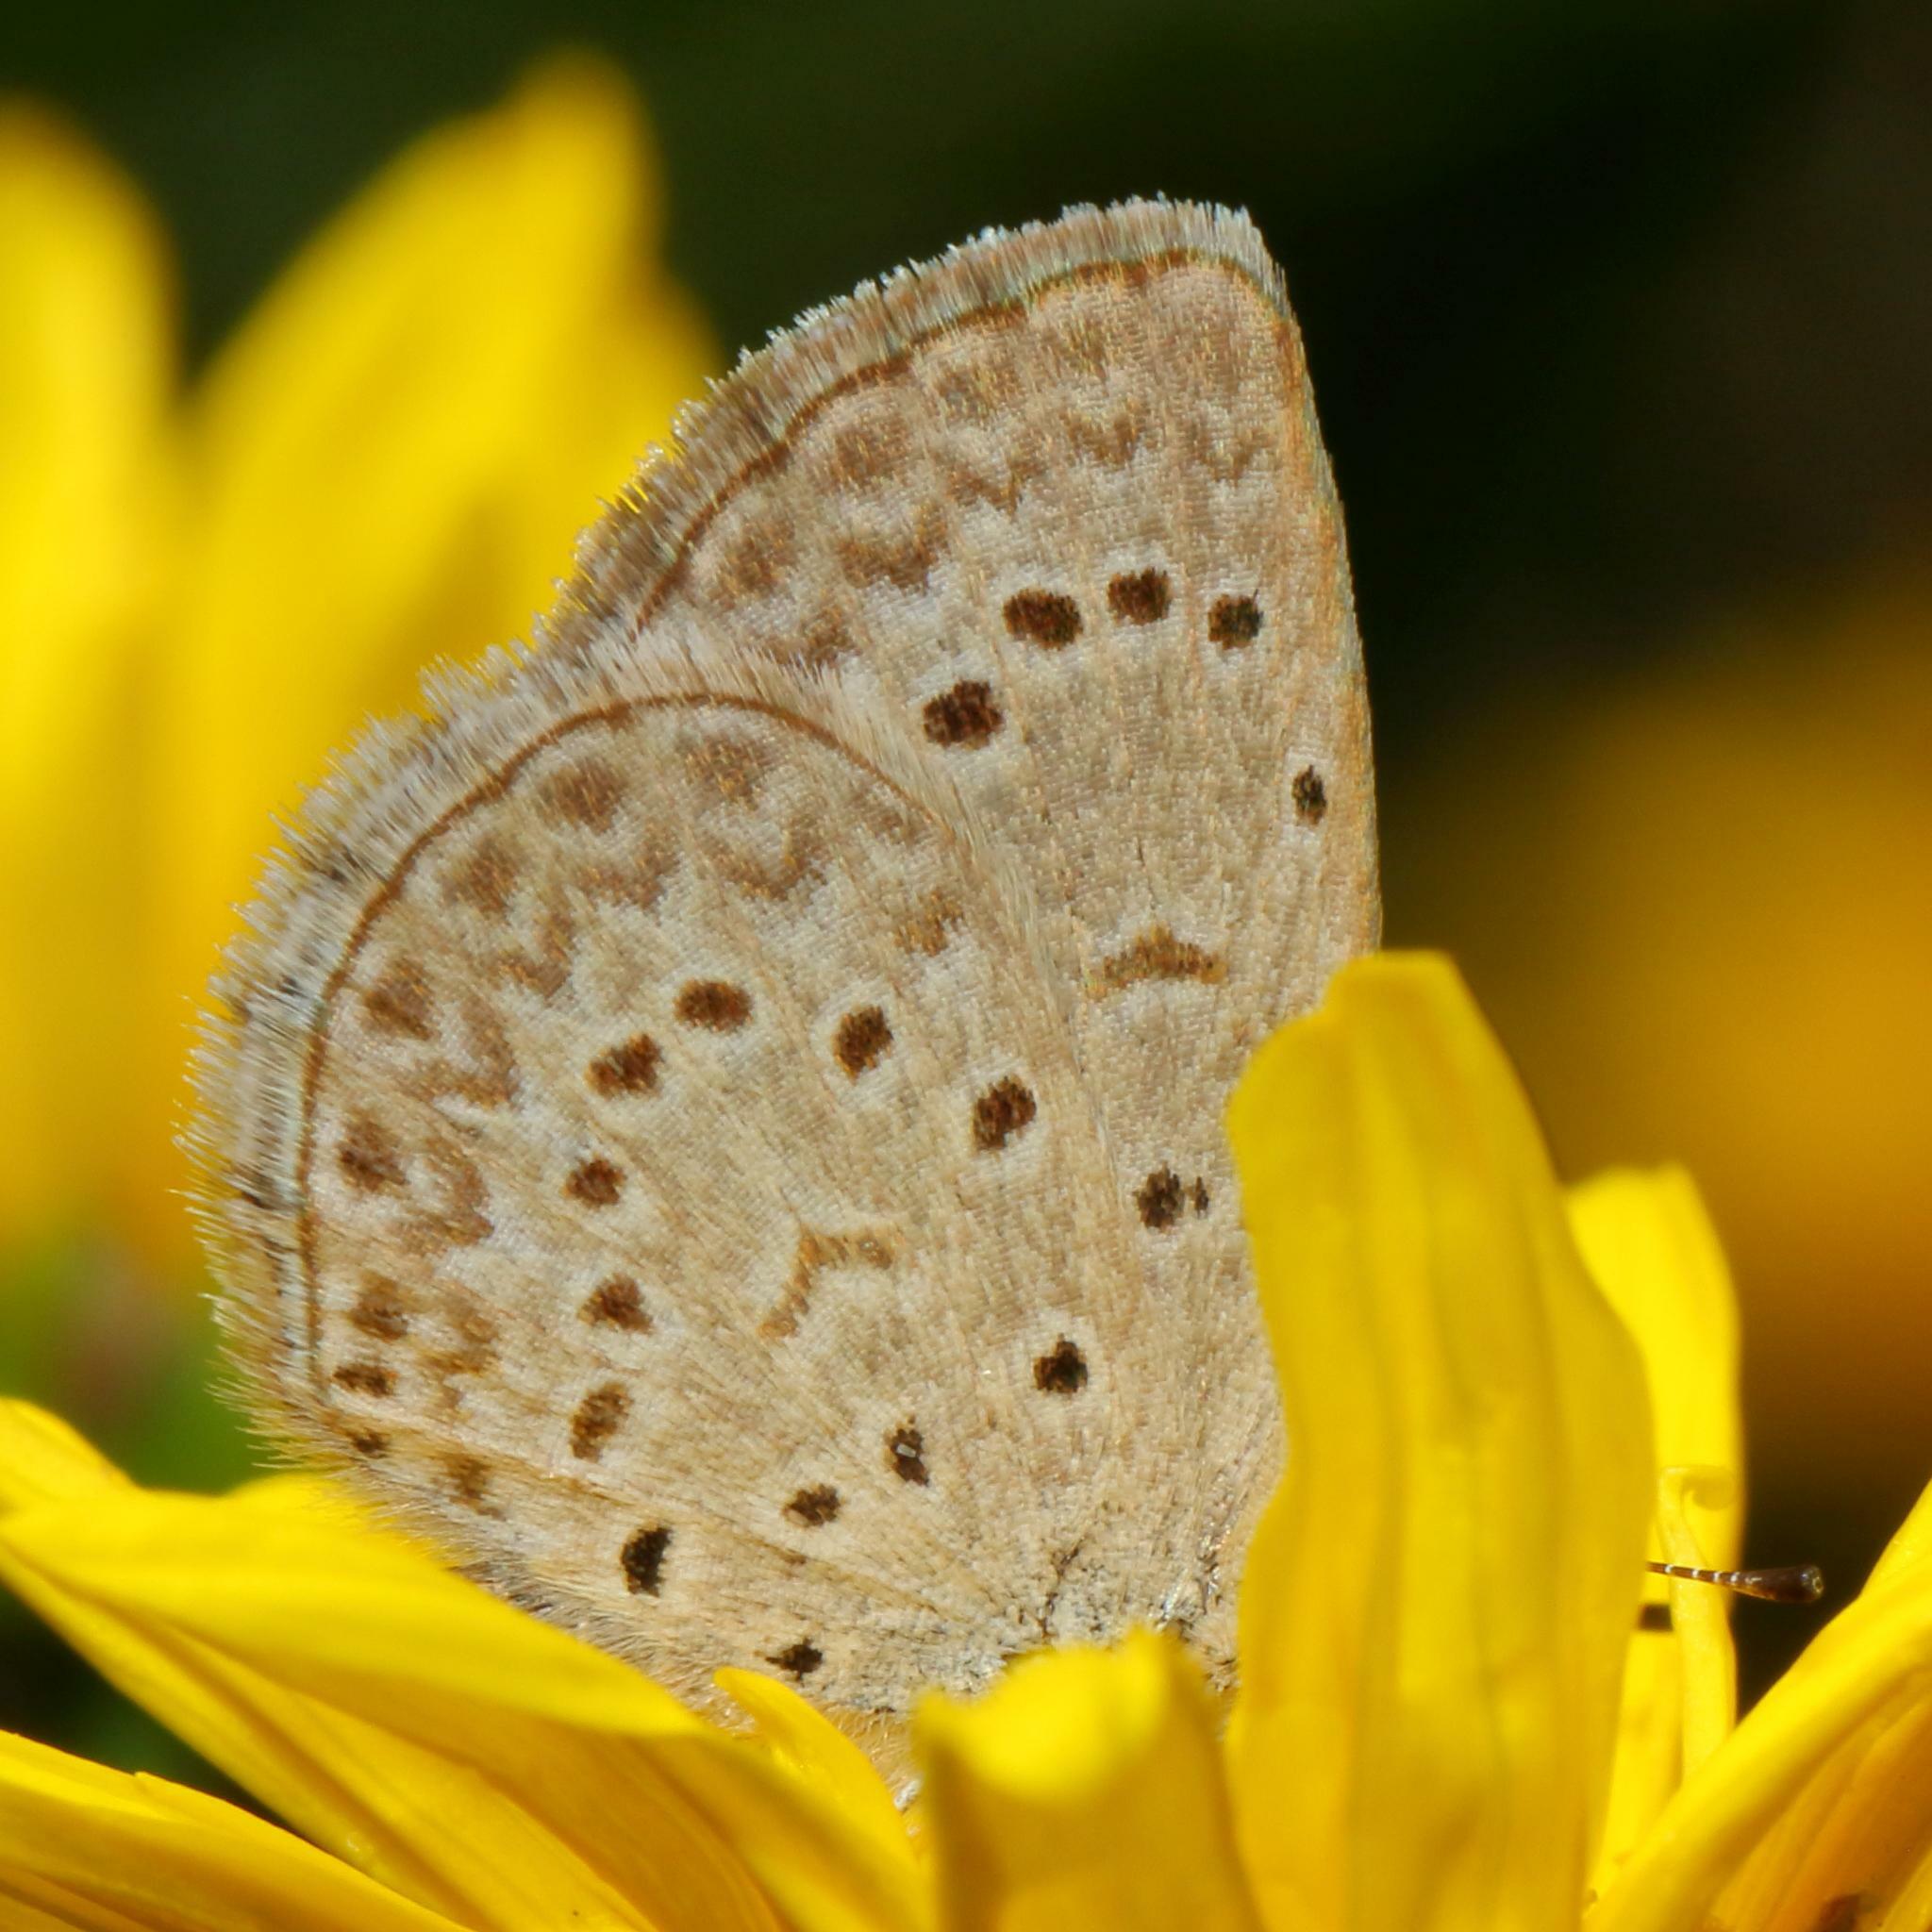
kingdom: Animalia
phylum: Arthropoda
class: Insecta
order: Lepidoptera
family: Lycaenidae
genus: Zizeeria
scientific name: Zizeeria knysna
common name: African grass blue
